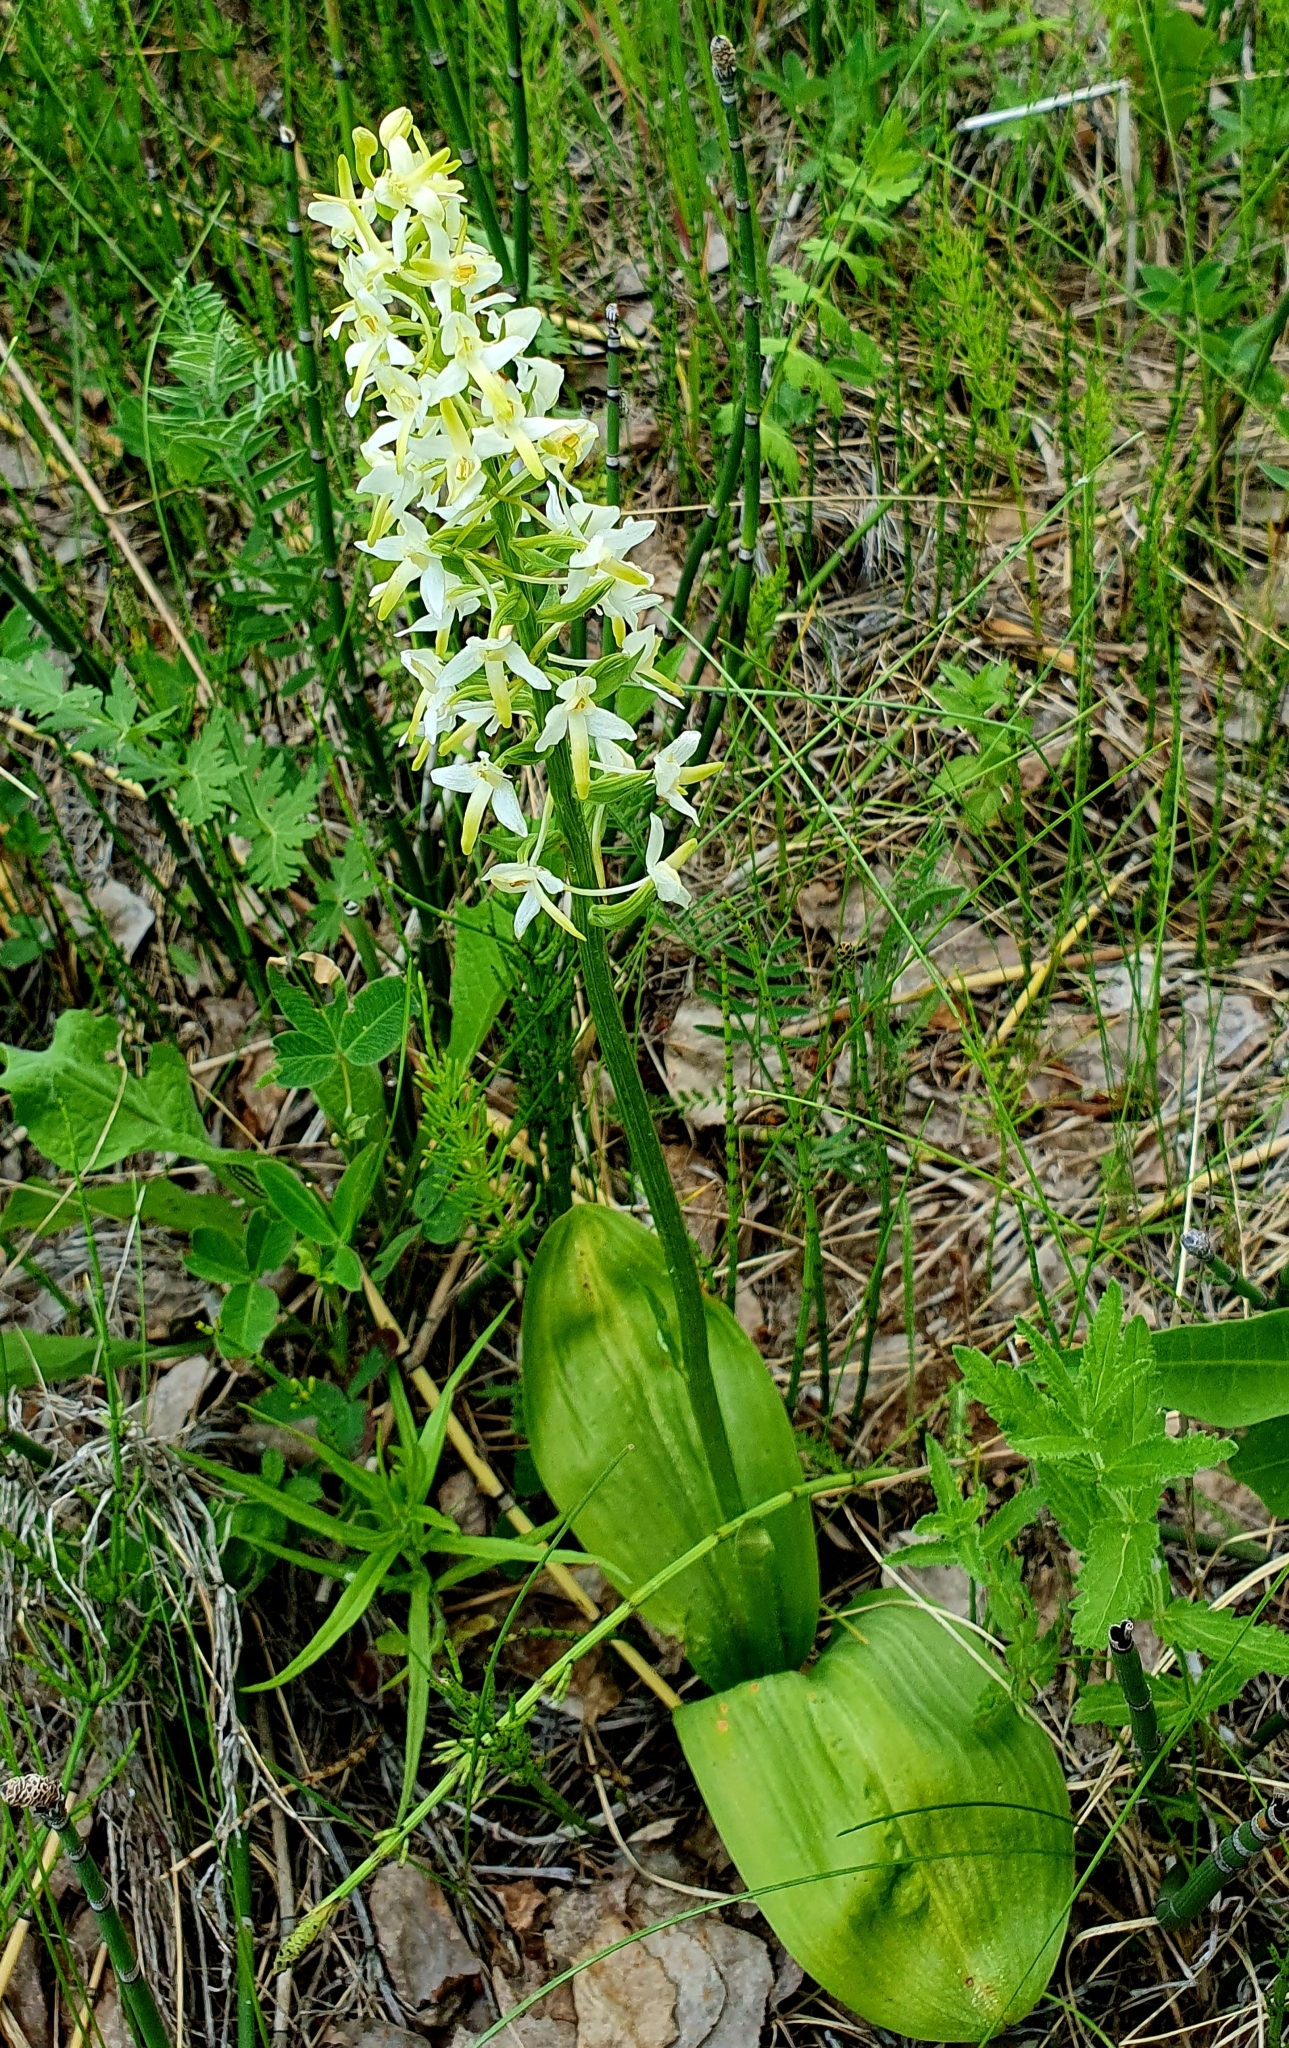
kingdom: Plantae
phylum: Tracheophyta
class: Liliopsida
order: Asparagales
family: Orchidaceae
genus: Platanthera
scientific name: Platanthera bifolia
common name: Lesser butterfly-orchid
